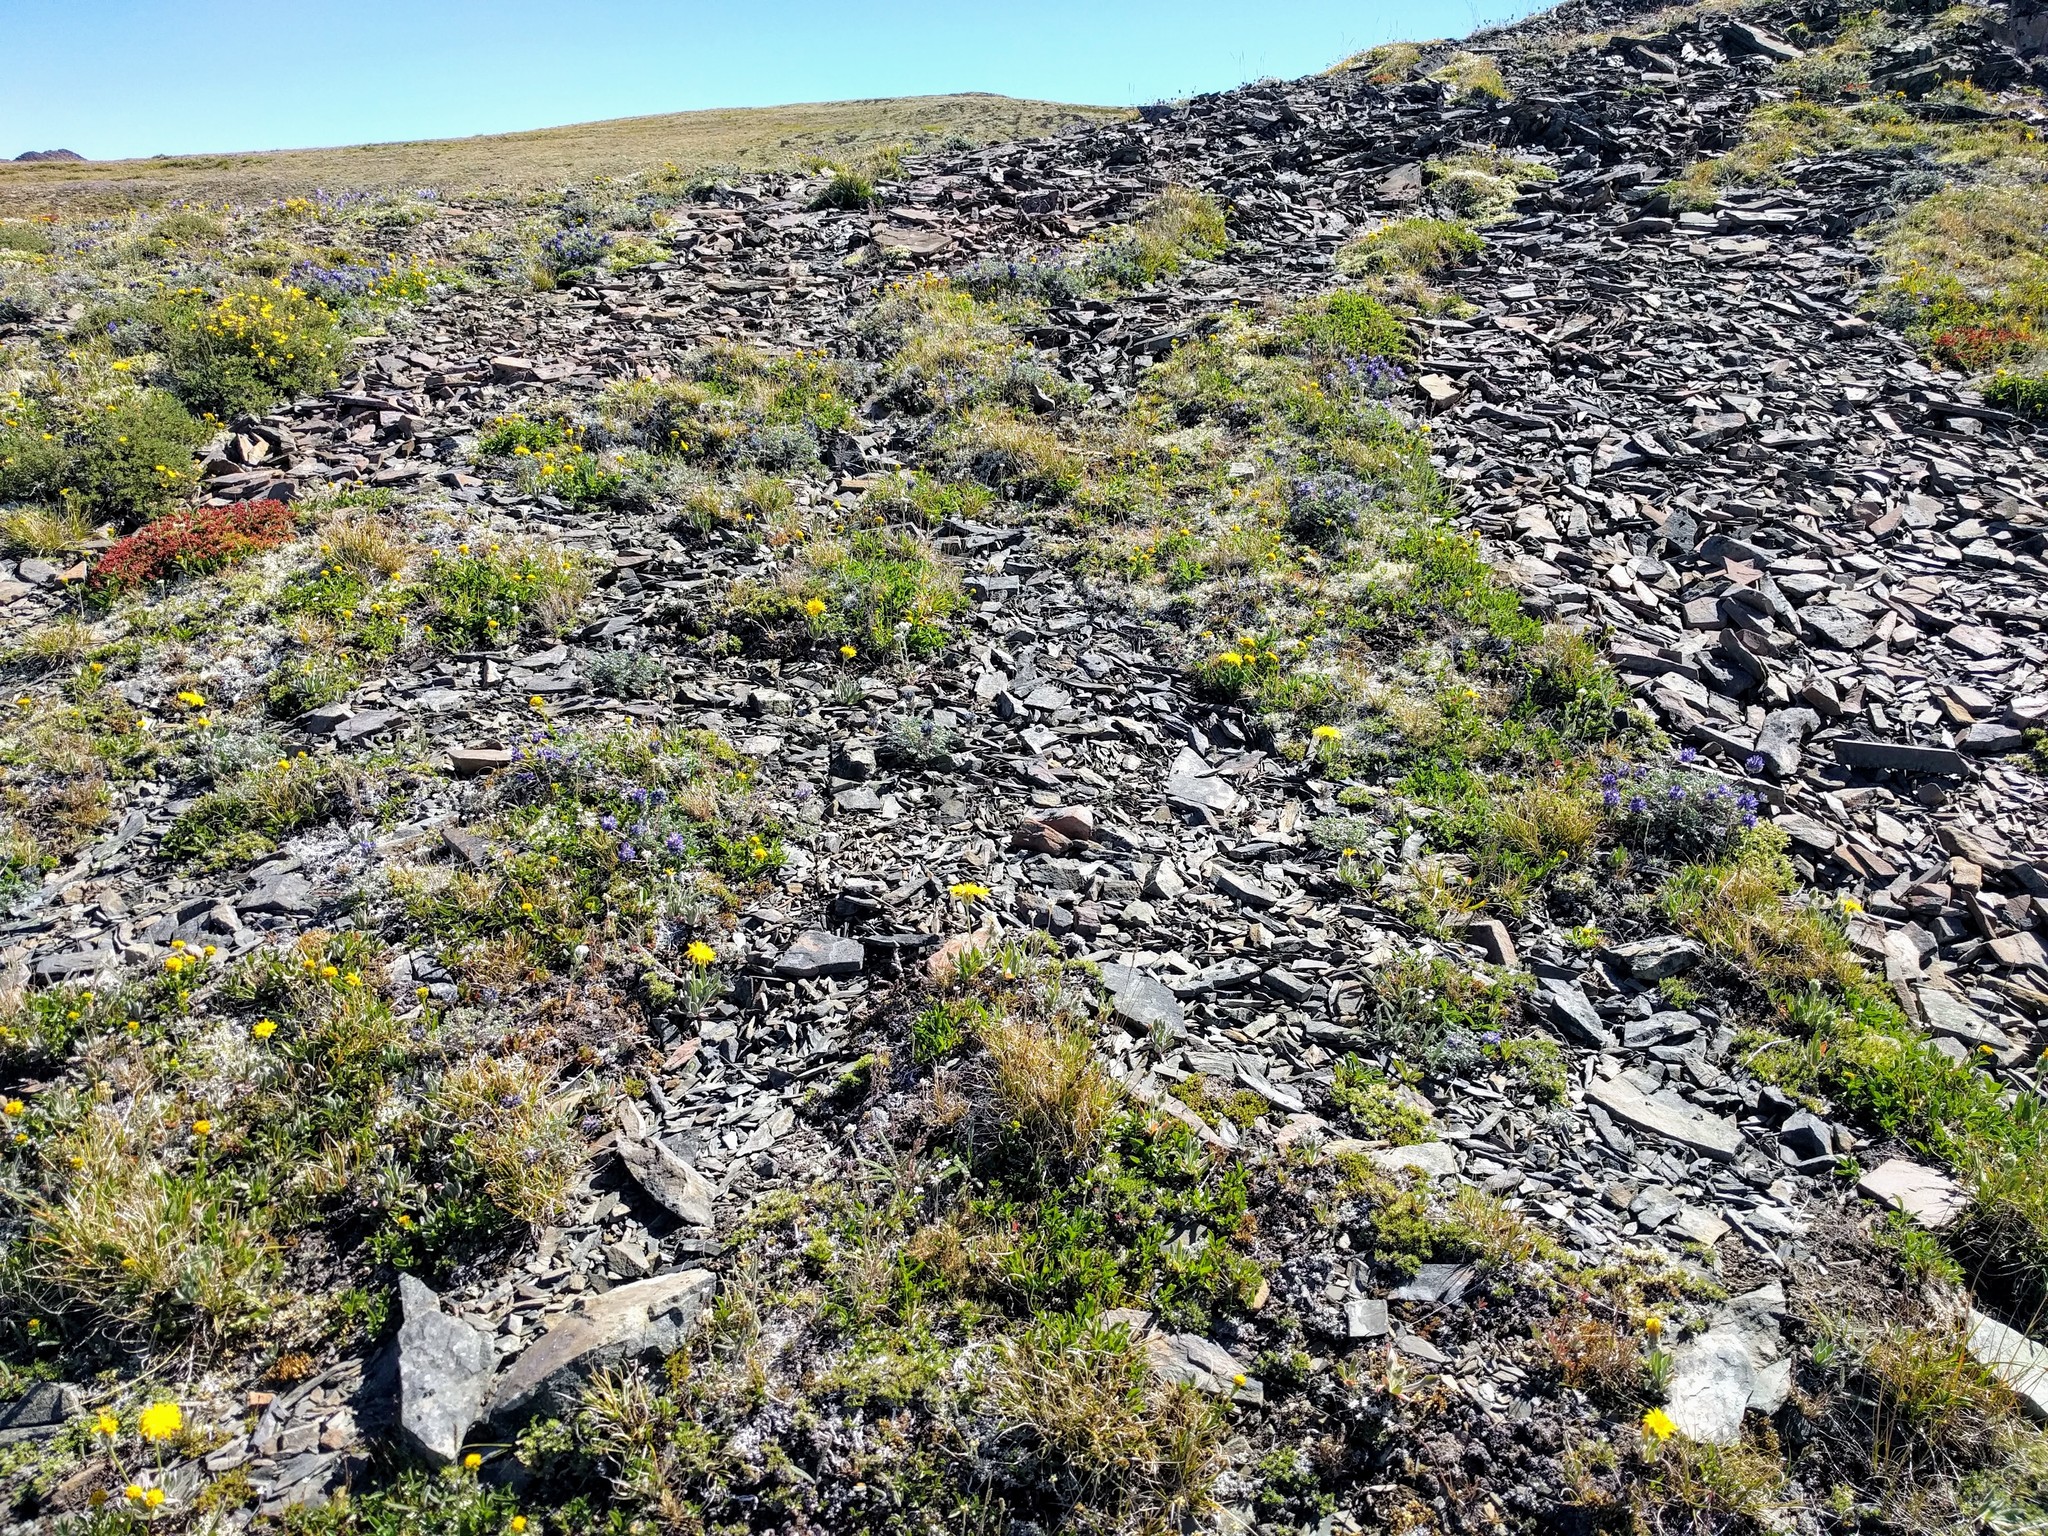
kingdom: Plantae
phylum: Tracheophyta
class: Magnoliopsida
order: Asterales
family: Asteraceae
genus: Agoseris
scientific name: Agoseris glauca
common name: Prairie agoseris
